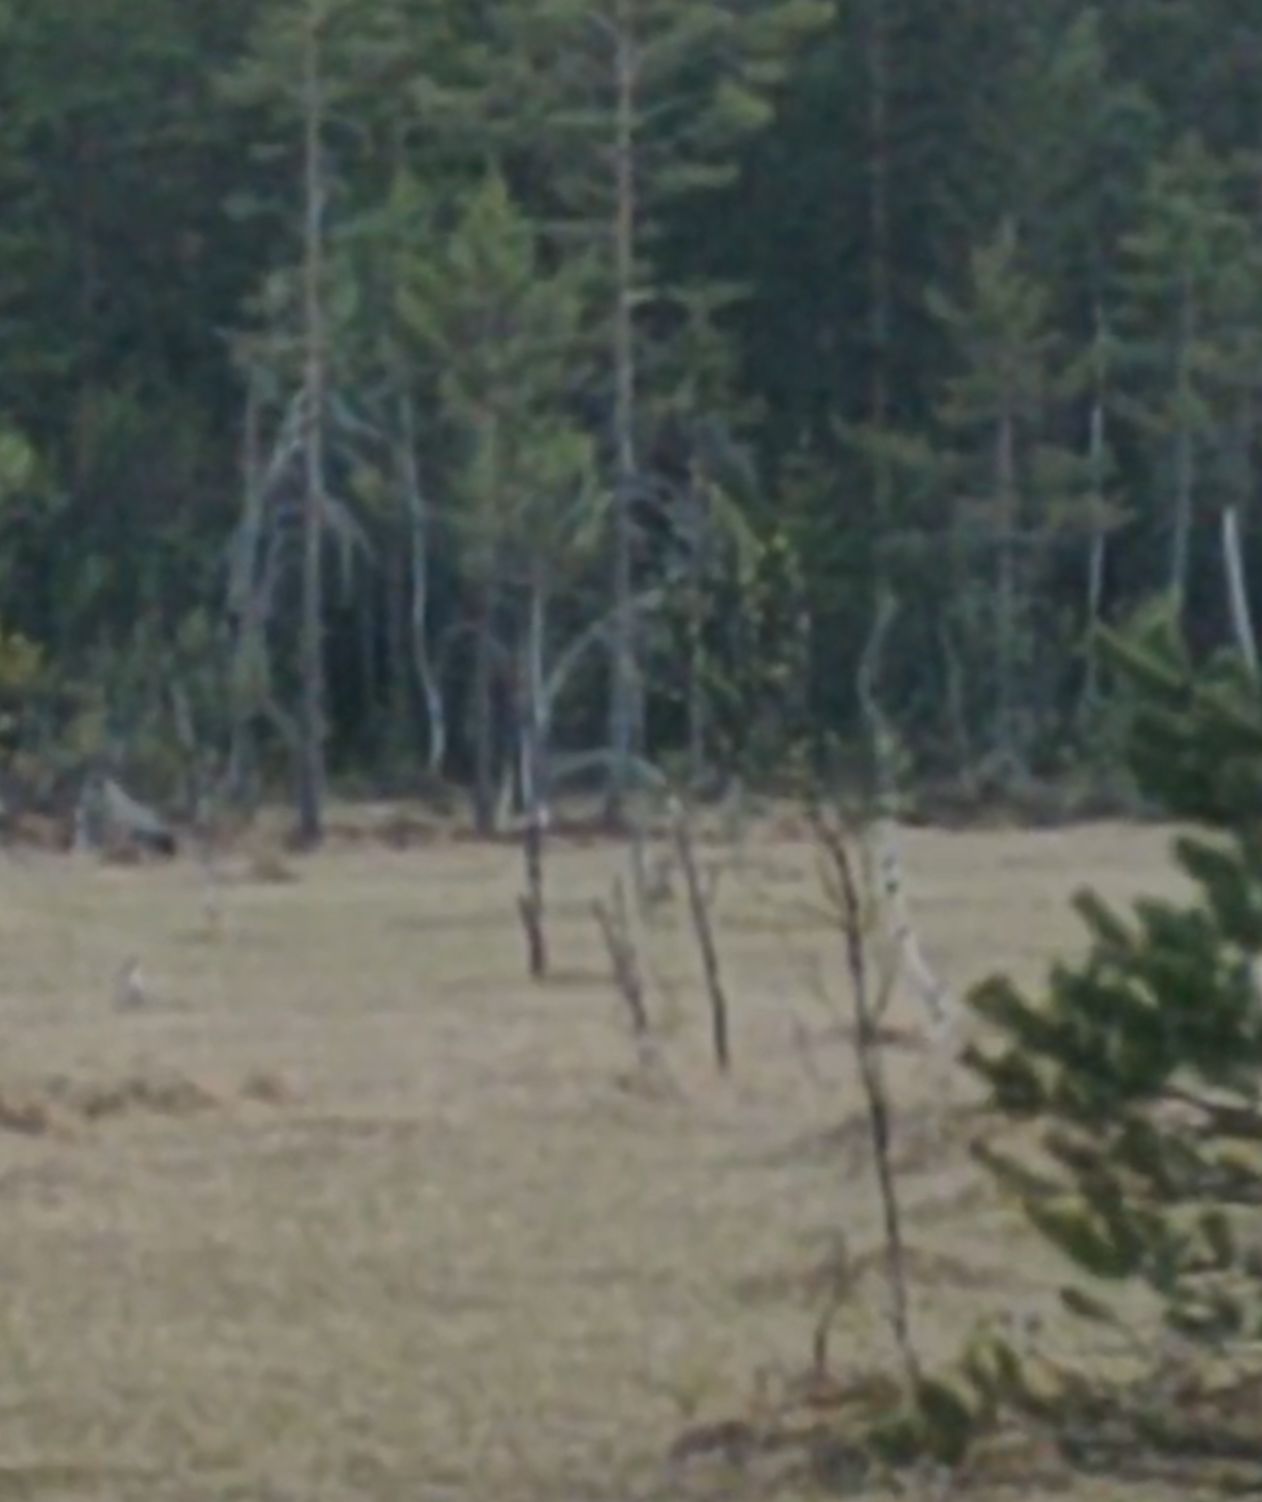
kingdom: Animalia
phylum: Chordata
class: Aves
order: Gruiformes
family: Gruidae
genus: Grus
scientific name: Grus grus
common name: Common crane
